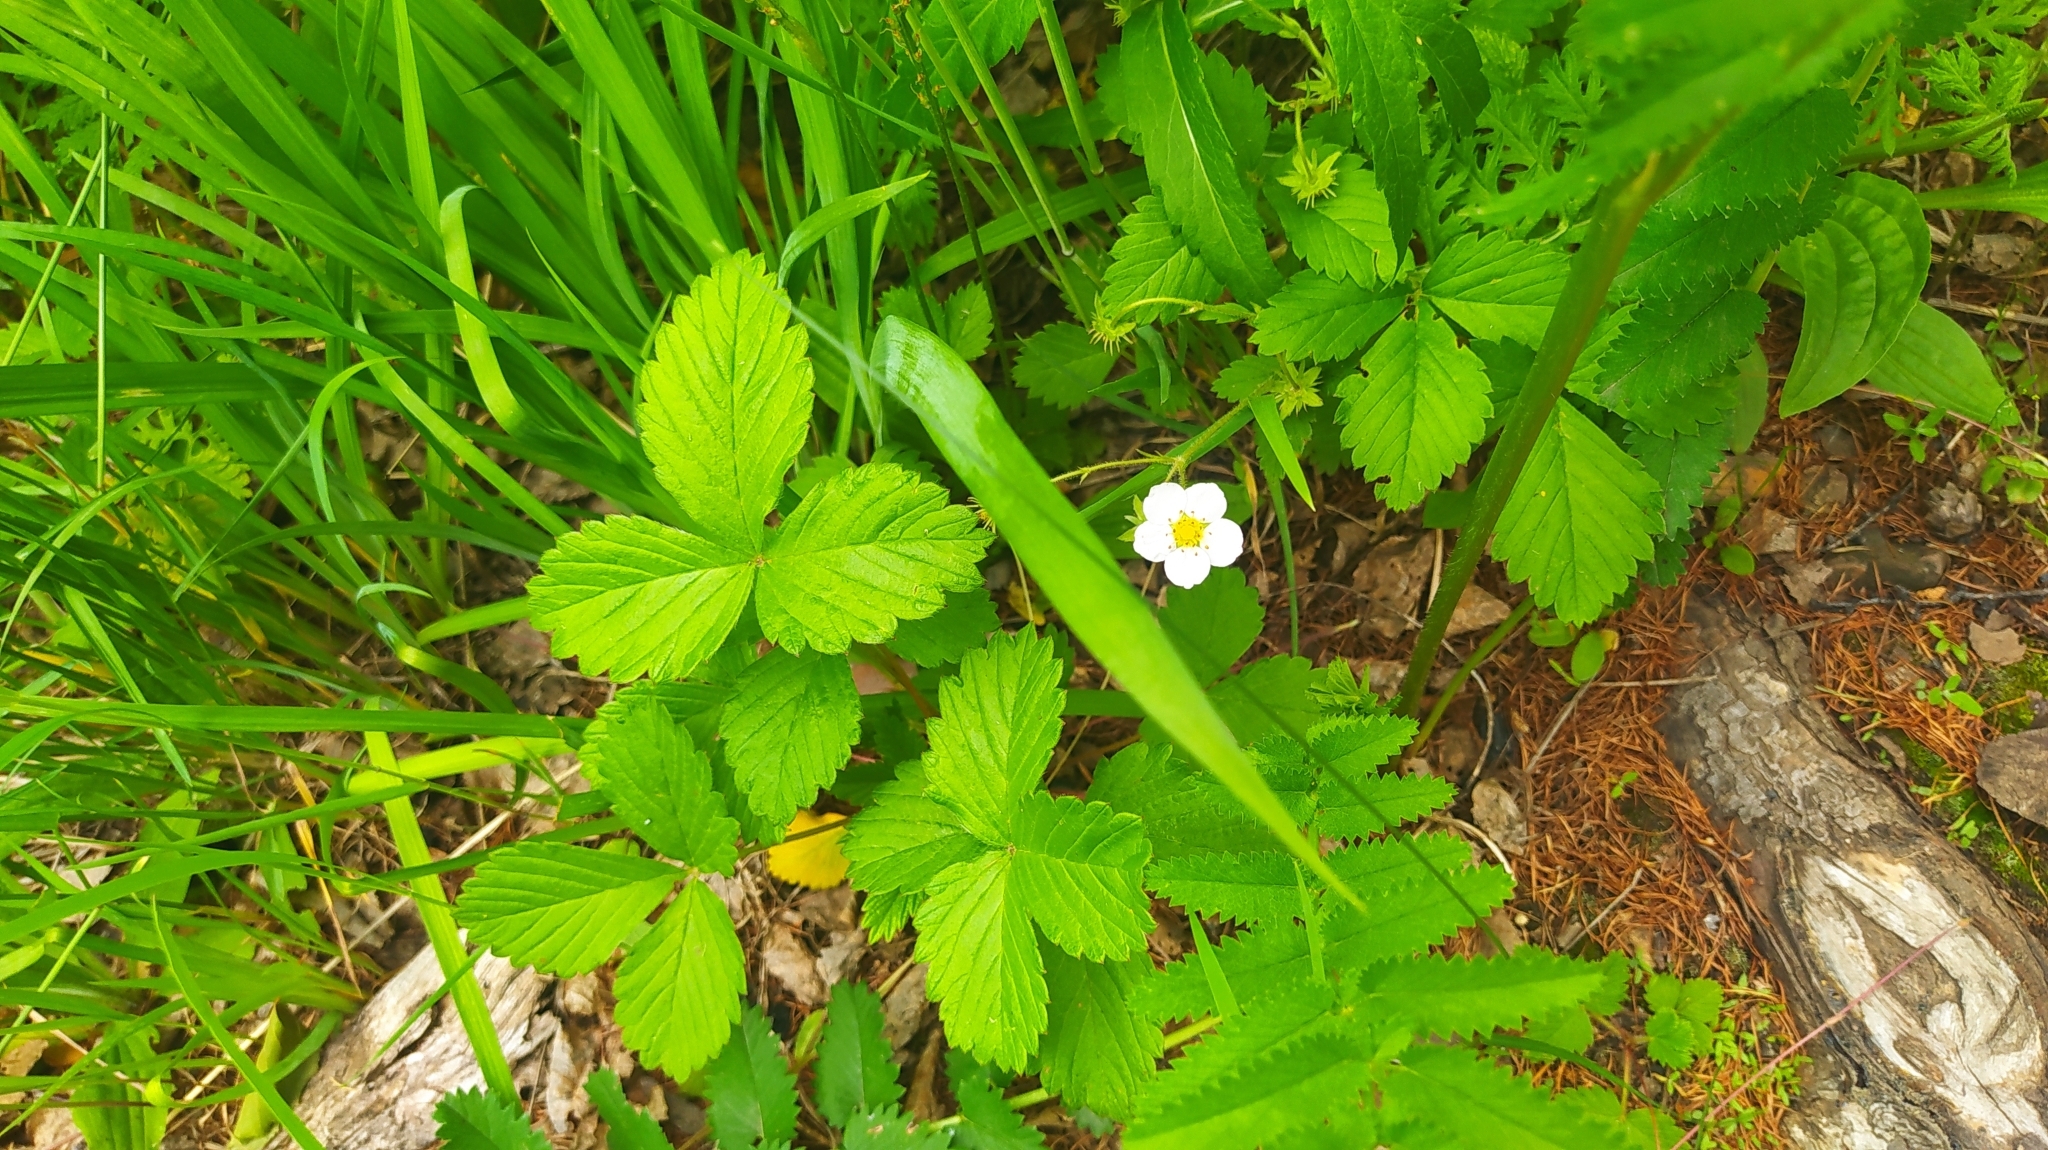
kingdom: Plantae
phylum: Tracheophyta
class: Magnoliopsida
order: Rosales
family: Rosaceae
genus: Fragaria
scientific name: Fragaria orientalis
